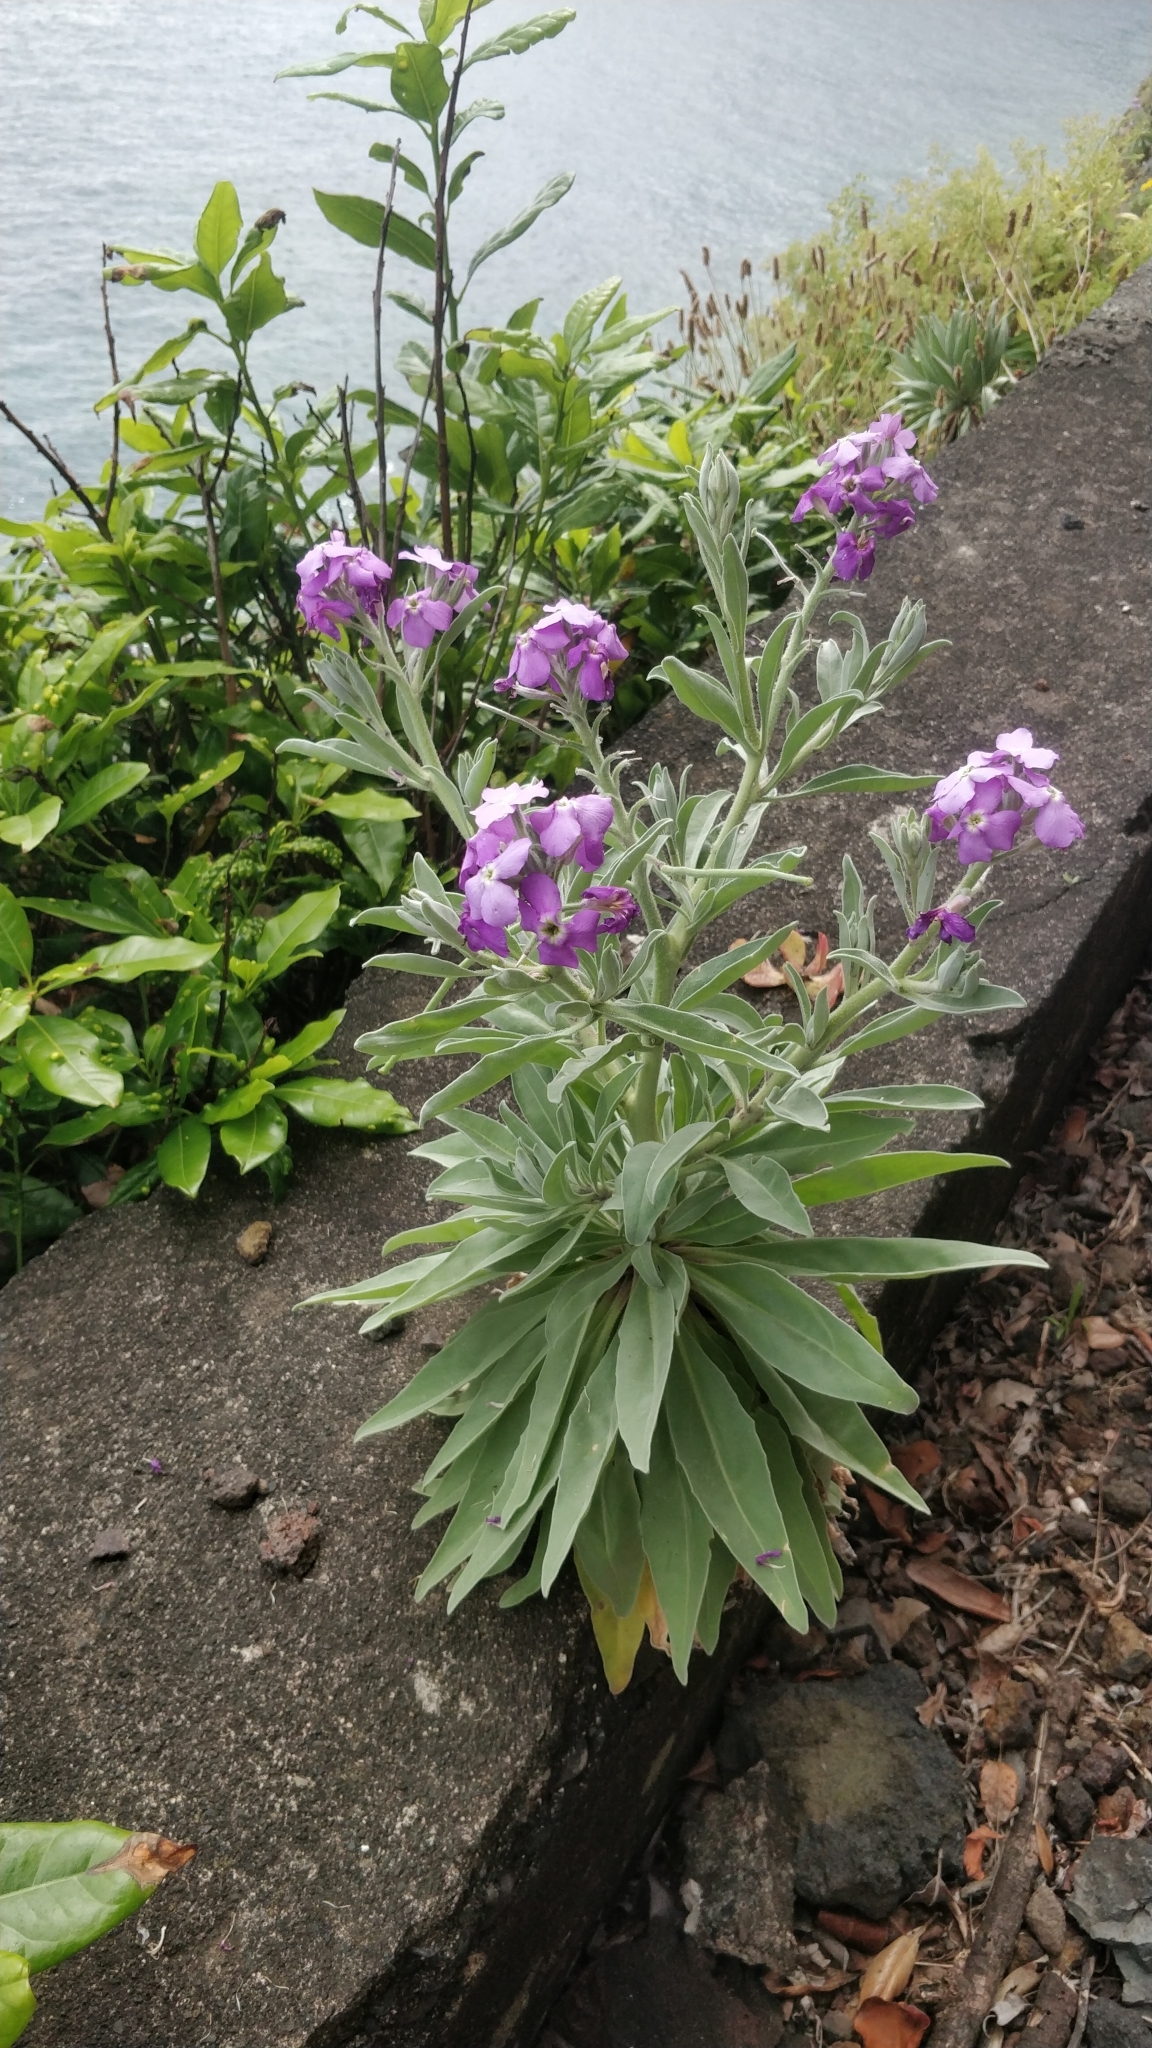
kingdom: Plantae
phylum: Tracheophyta
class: Magnoliopsida
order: Brassicales
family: Brassicaceae
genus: Matthiola
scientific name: Matthiola maderensis
